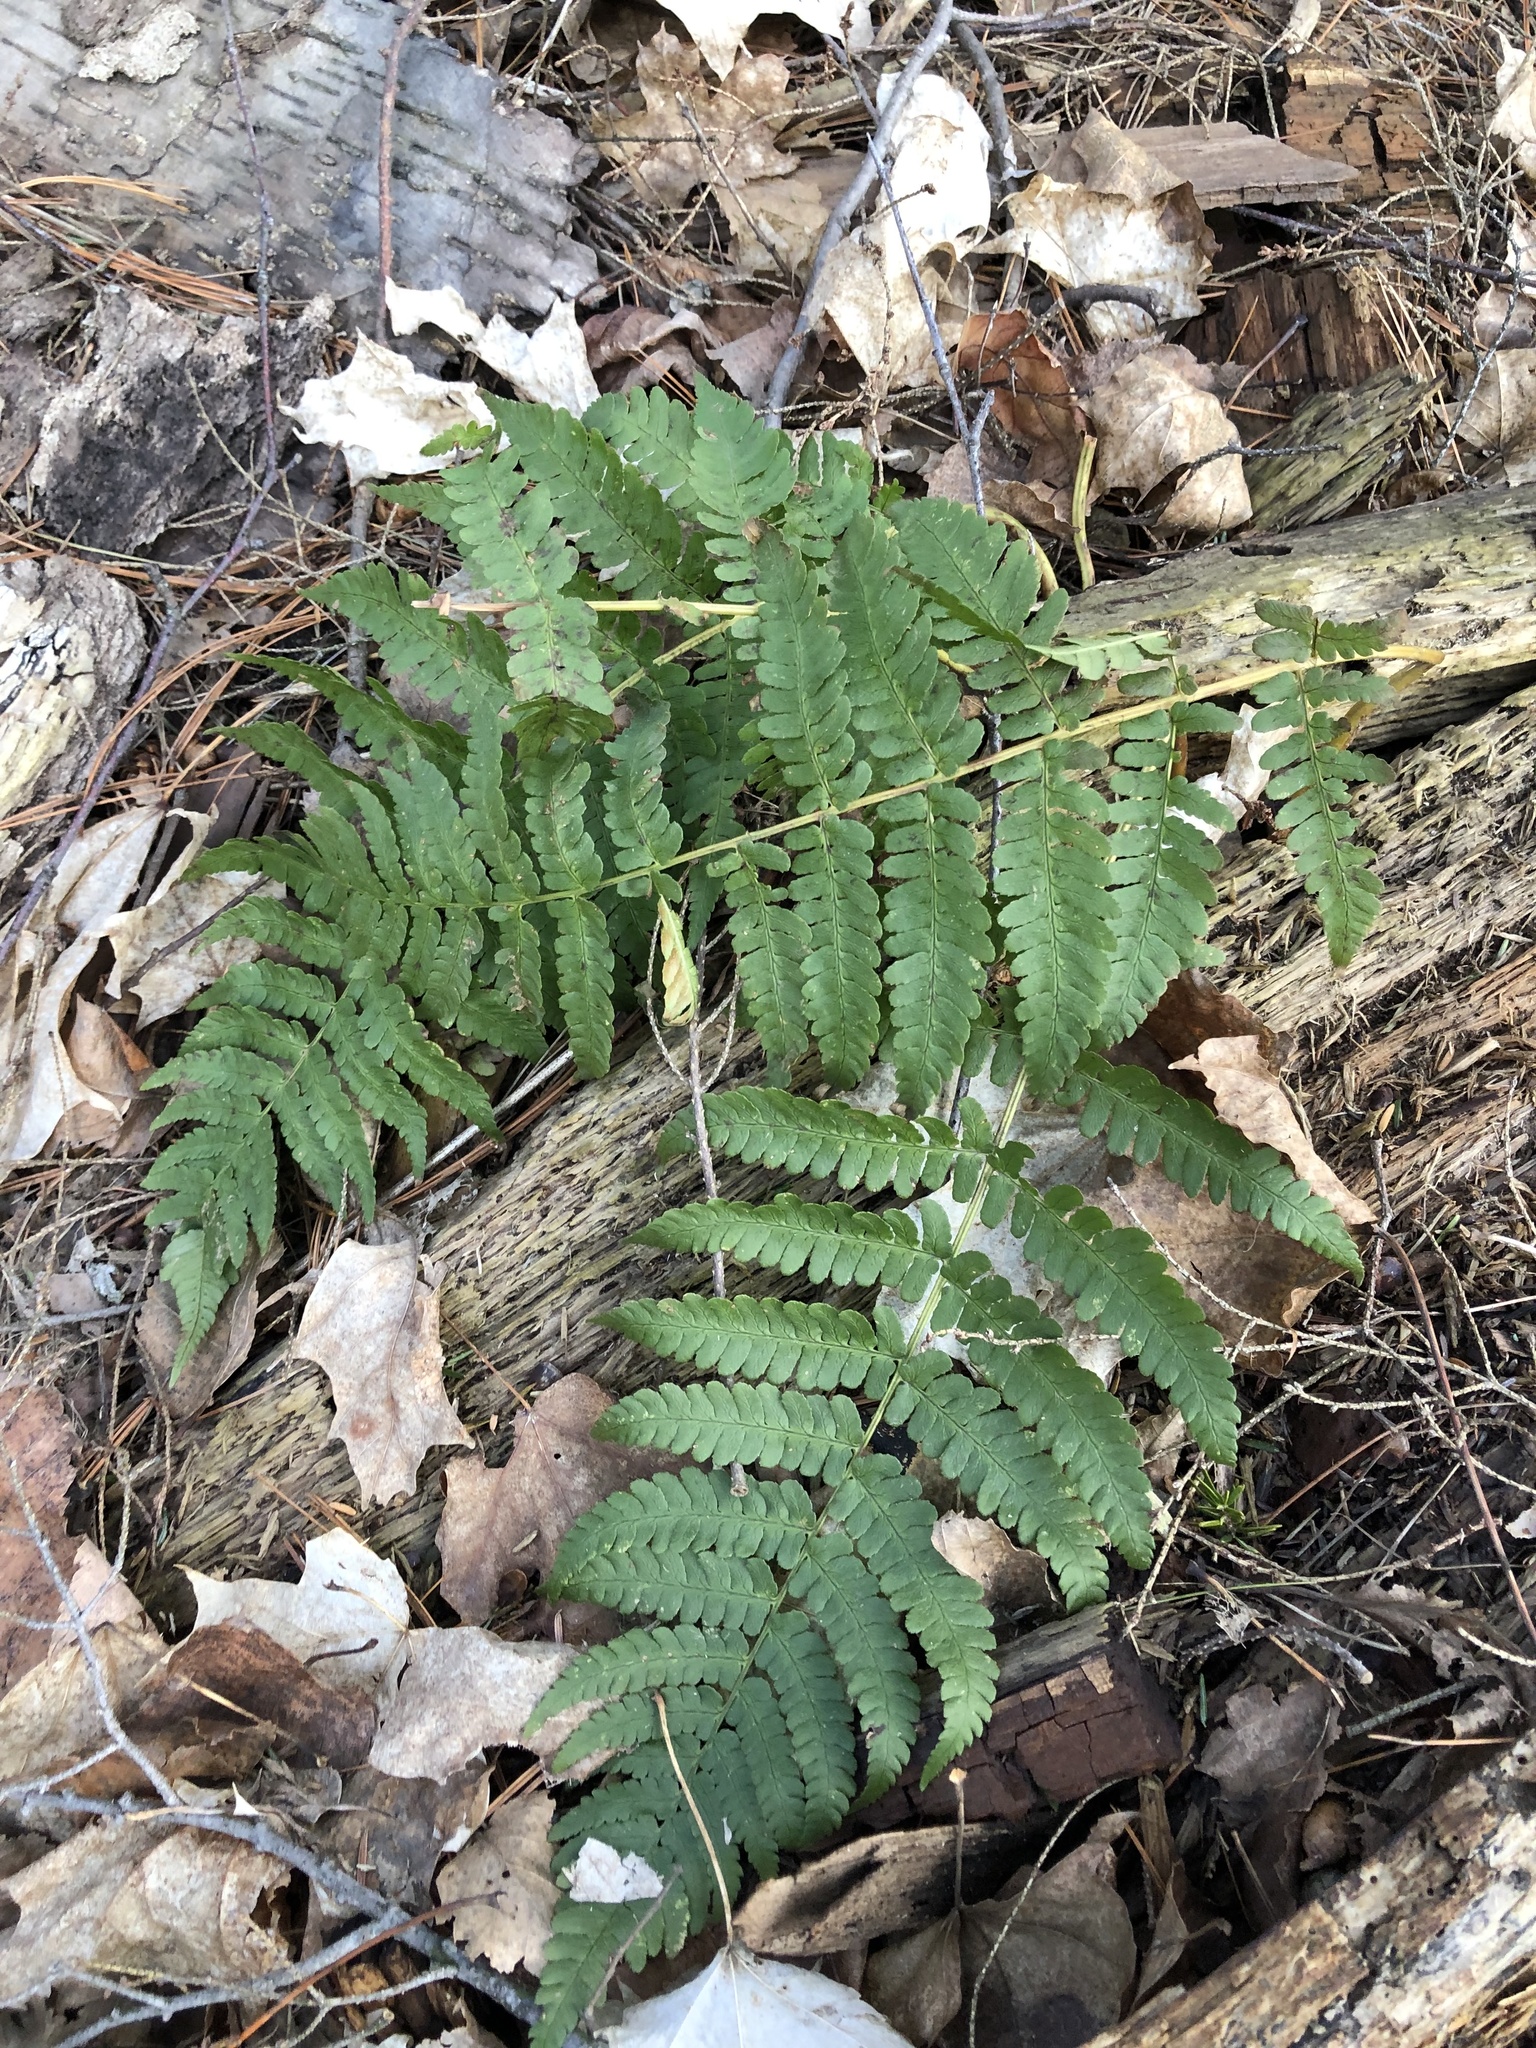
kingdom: Plantae
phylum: Tracheophyta
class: Polypodiopsida
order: Polypodiales
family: Dryopteridaceae
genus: Dryopteris
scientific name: Dryopteris marginalis
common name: Marginal wood fern
